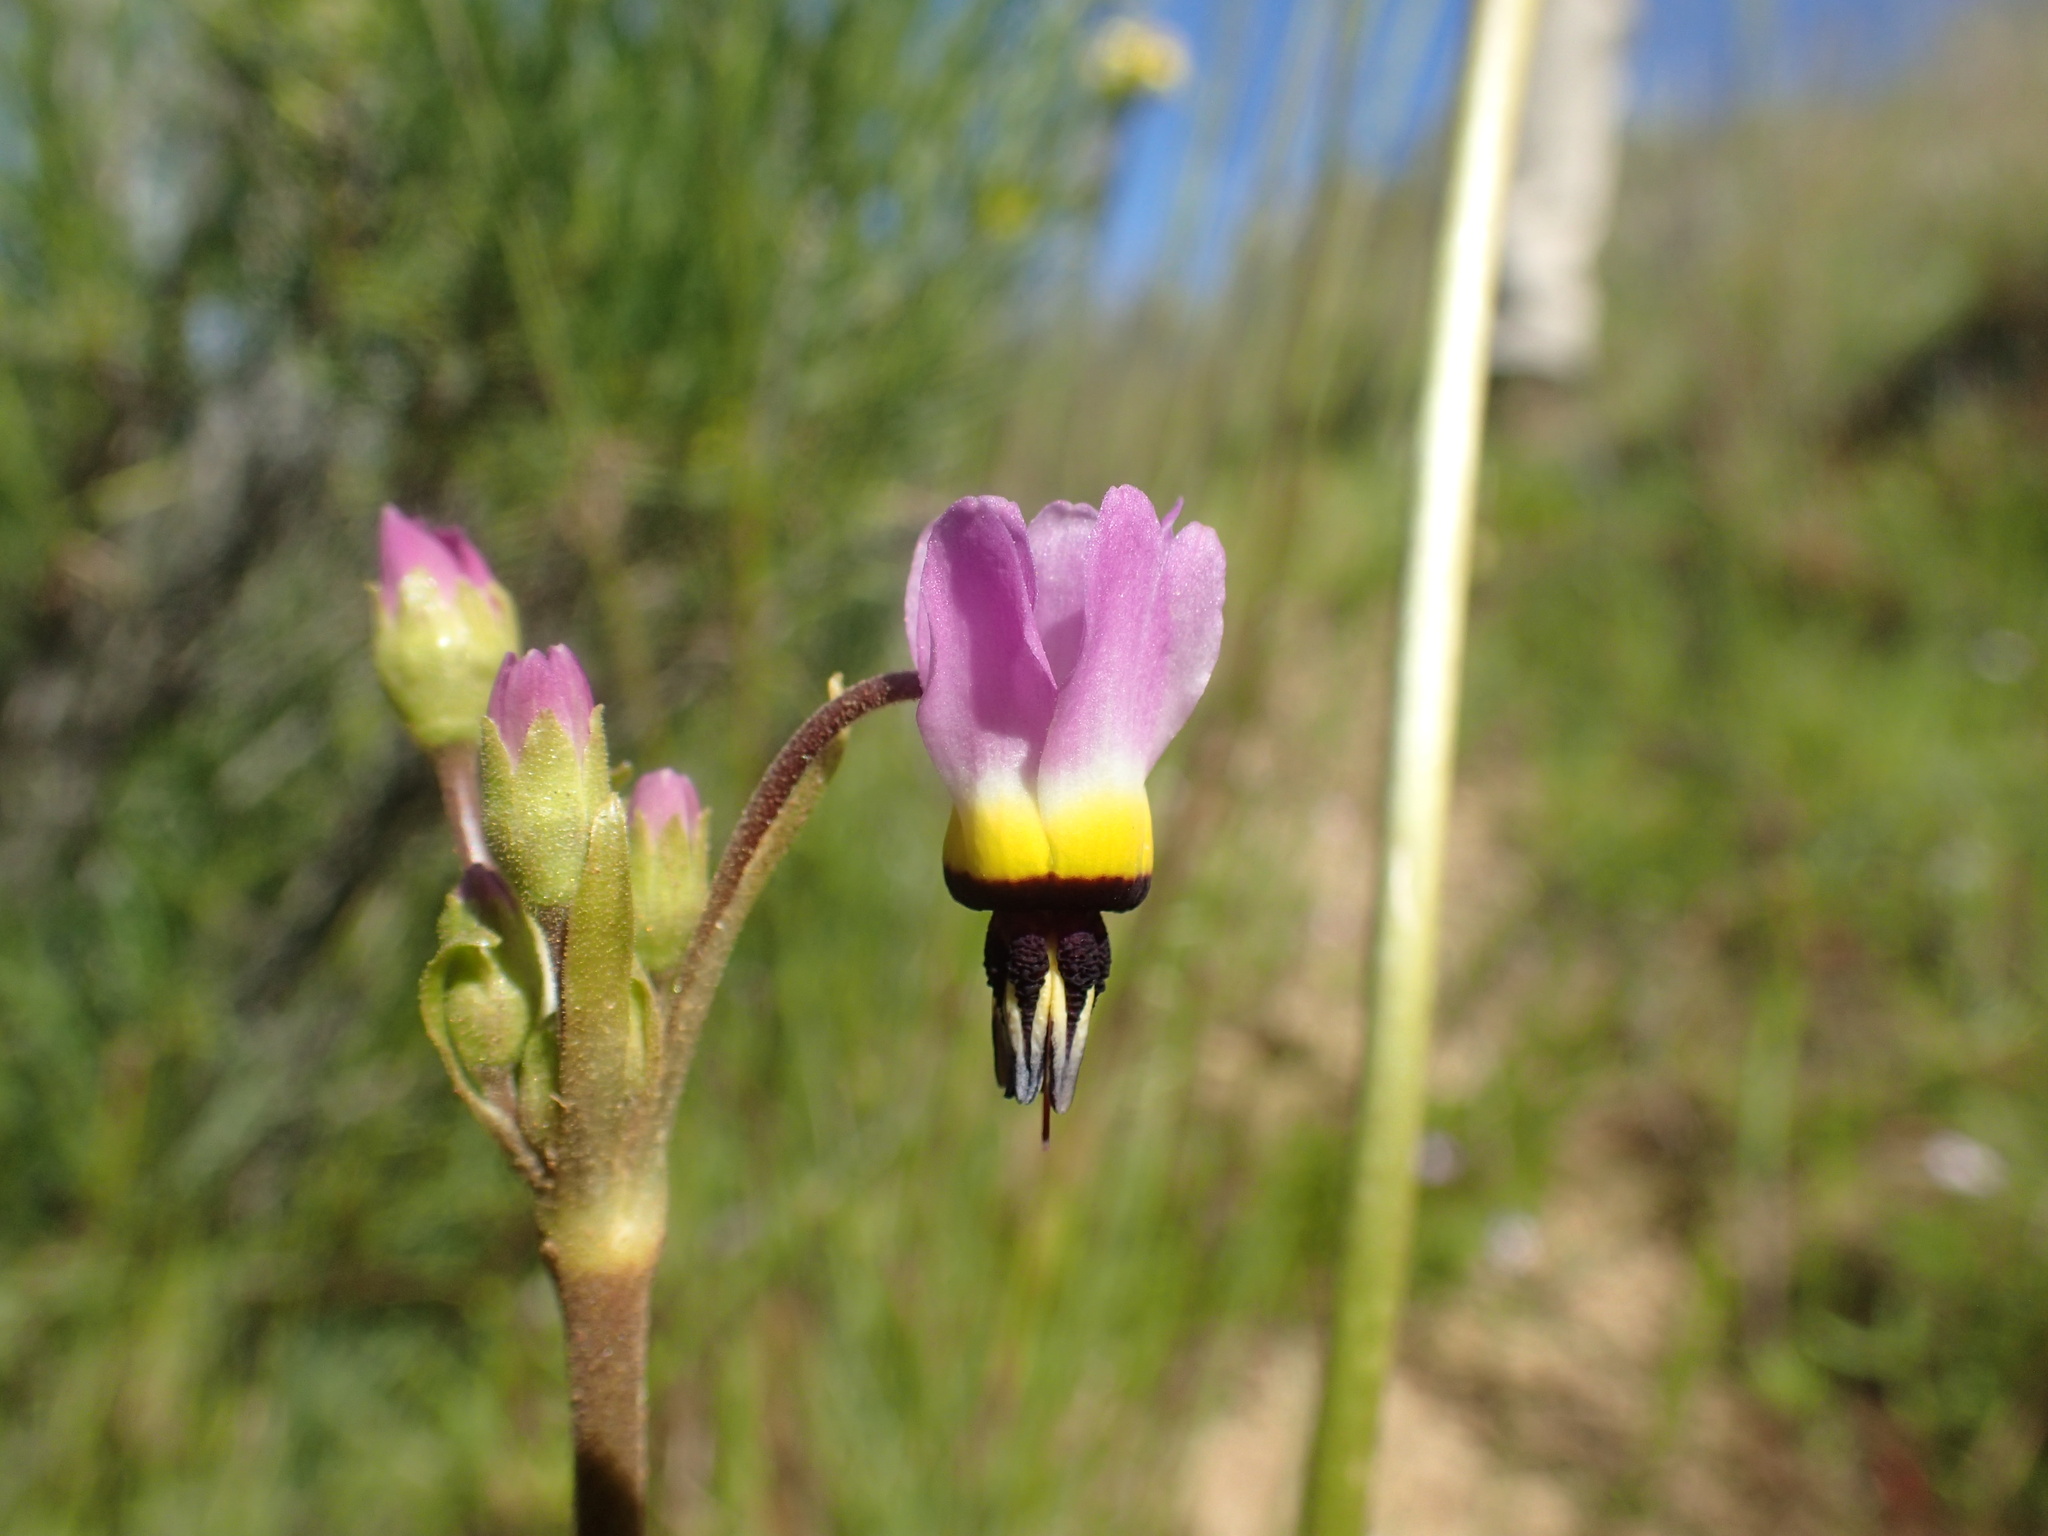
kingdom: Plantae
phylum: Tracheophyta
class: Magnoliopsida
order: Ericales
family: Primulaceae
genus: Dodecatheon
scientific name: Dodecatheon clevelandii
